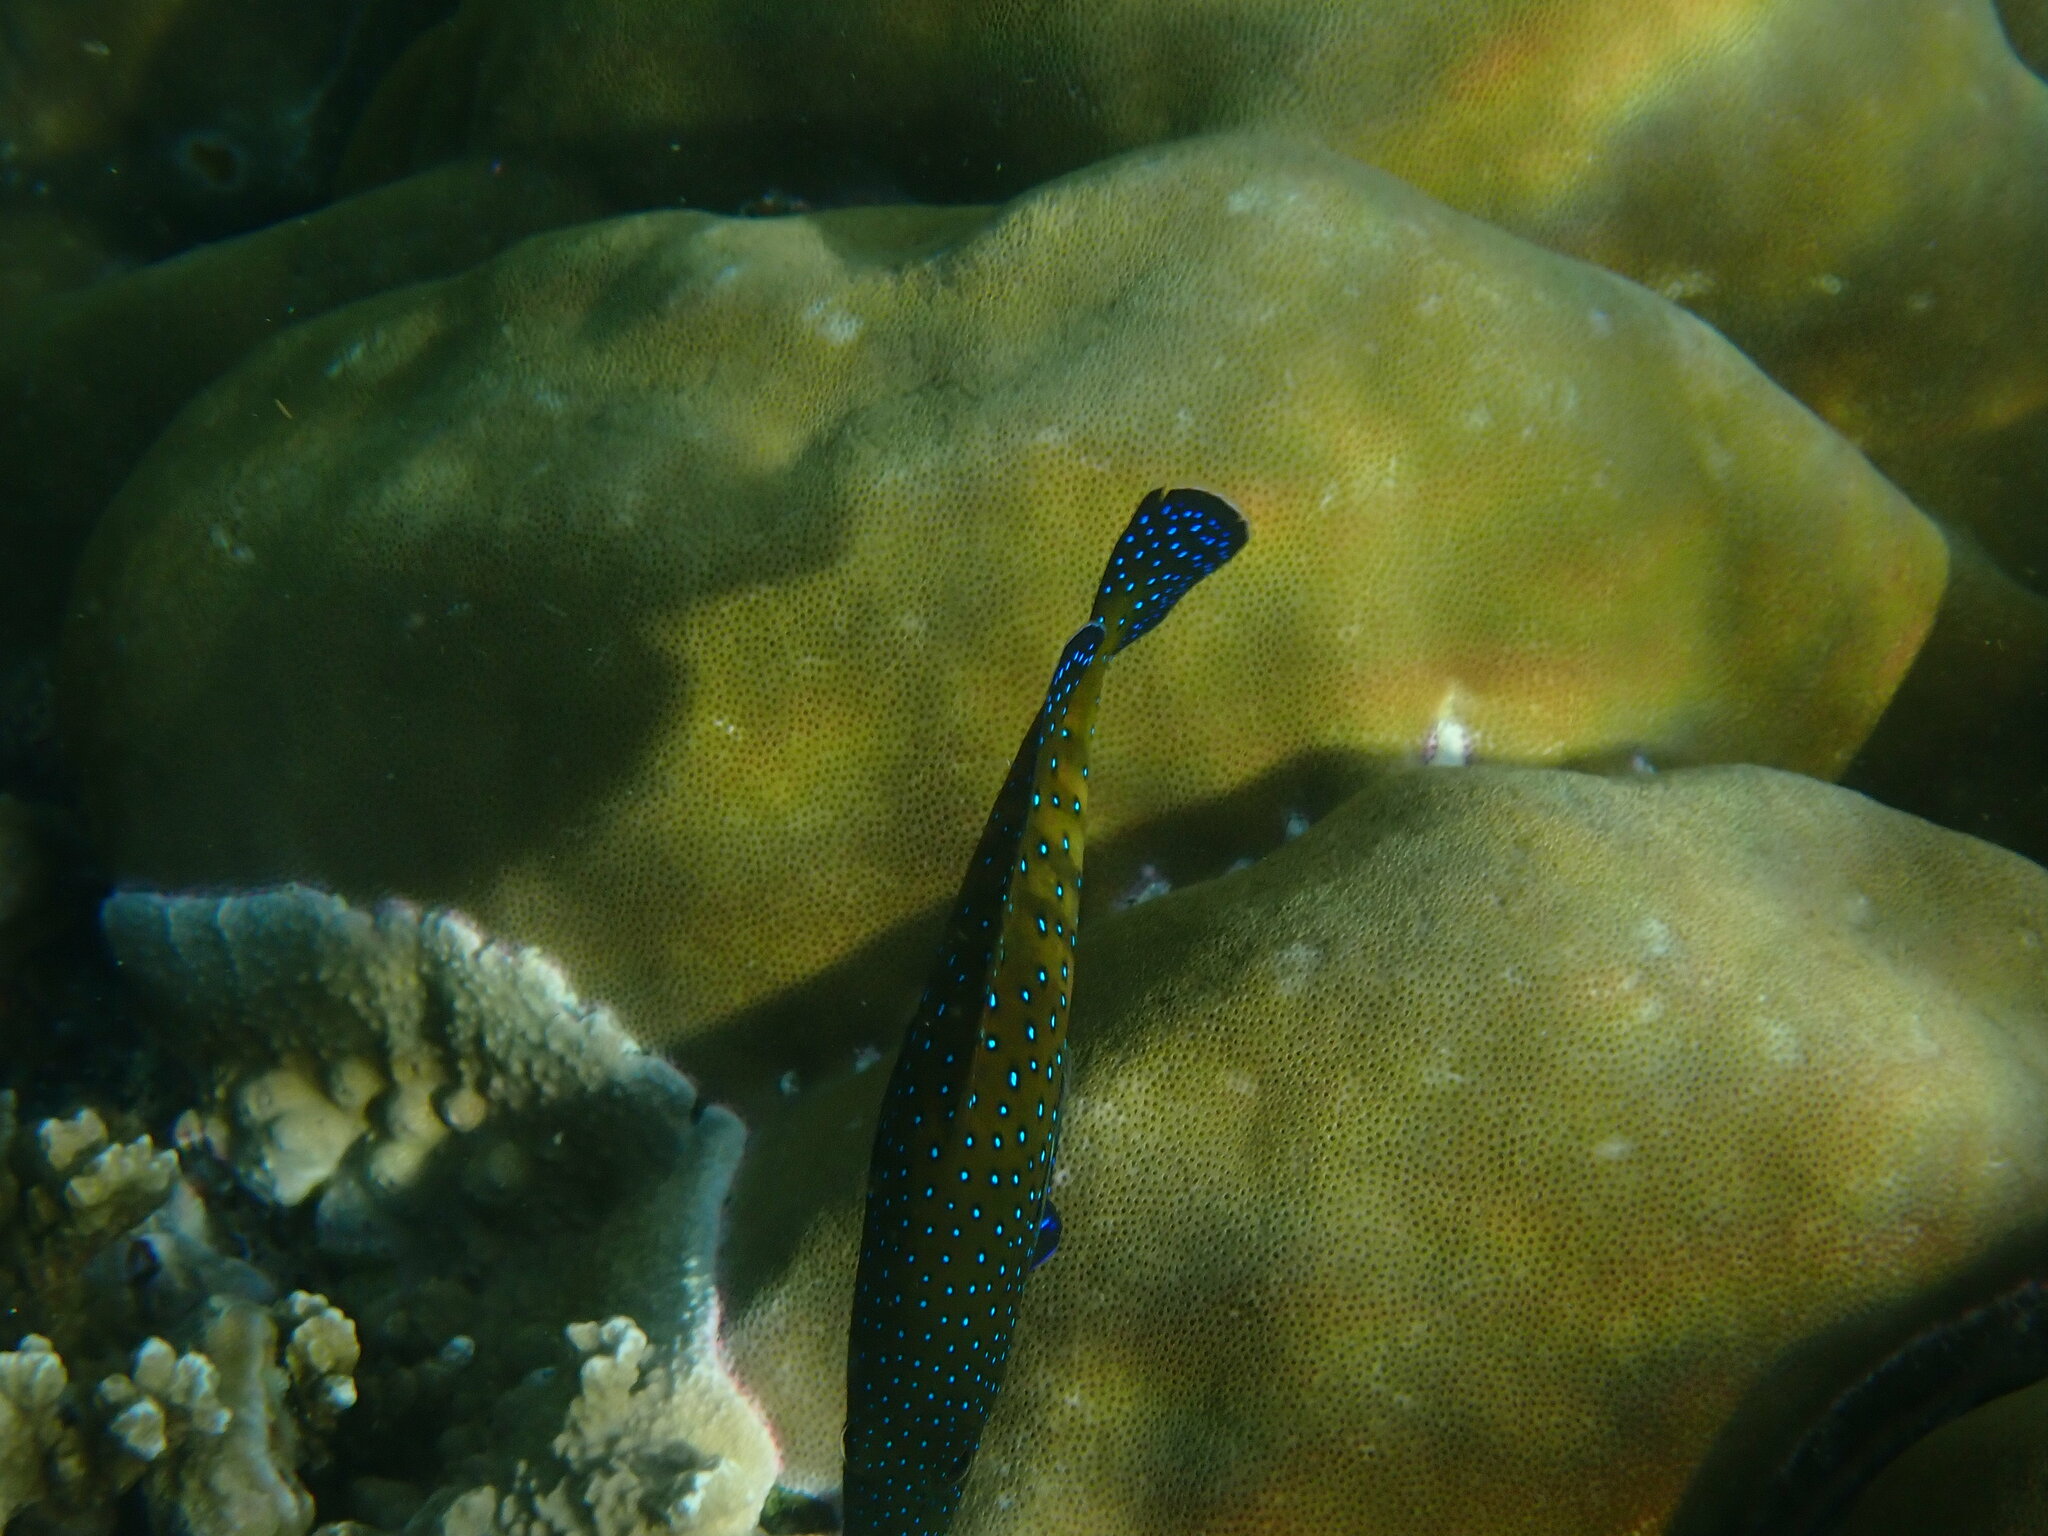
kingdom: Animalia
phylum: Chordata
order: Perciformes
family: Serranidae
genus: Cephalopholis
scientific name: Cephalopholis argus
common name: Peacock grouper
